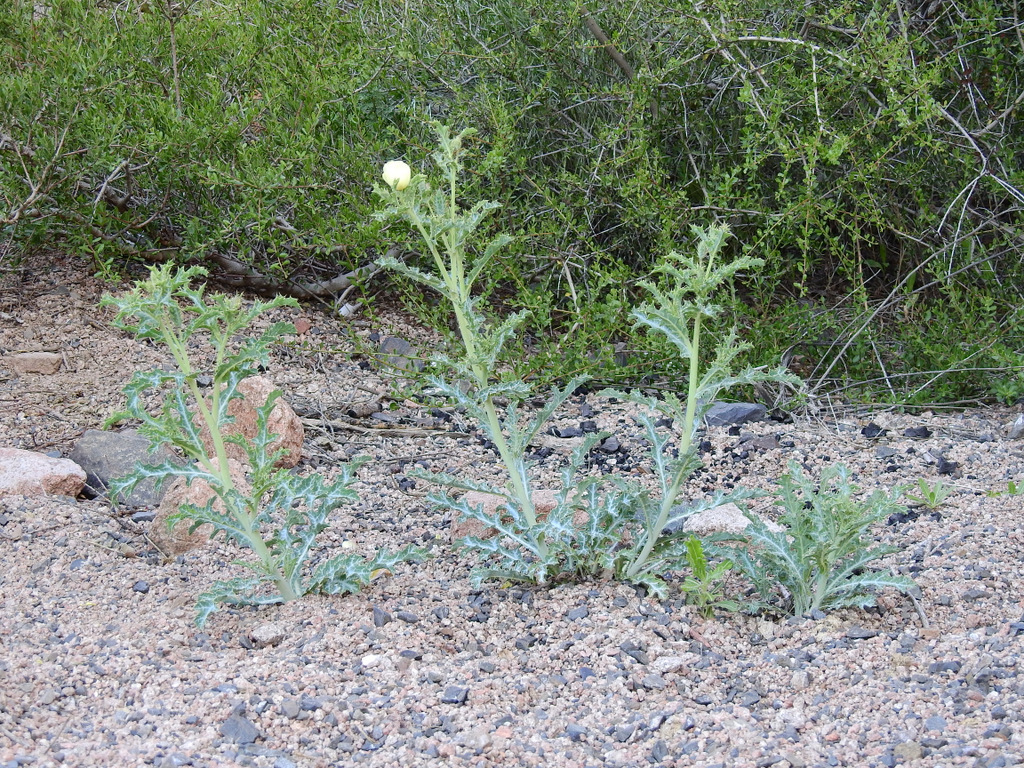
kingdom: Plantae
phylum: Tracheophyta
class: Magnoliopsida
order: Ranunculales
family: Papaveraceae
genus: Argemone
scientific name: Argemone subfusiformis
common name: American-poppy
